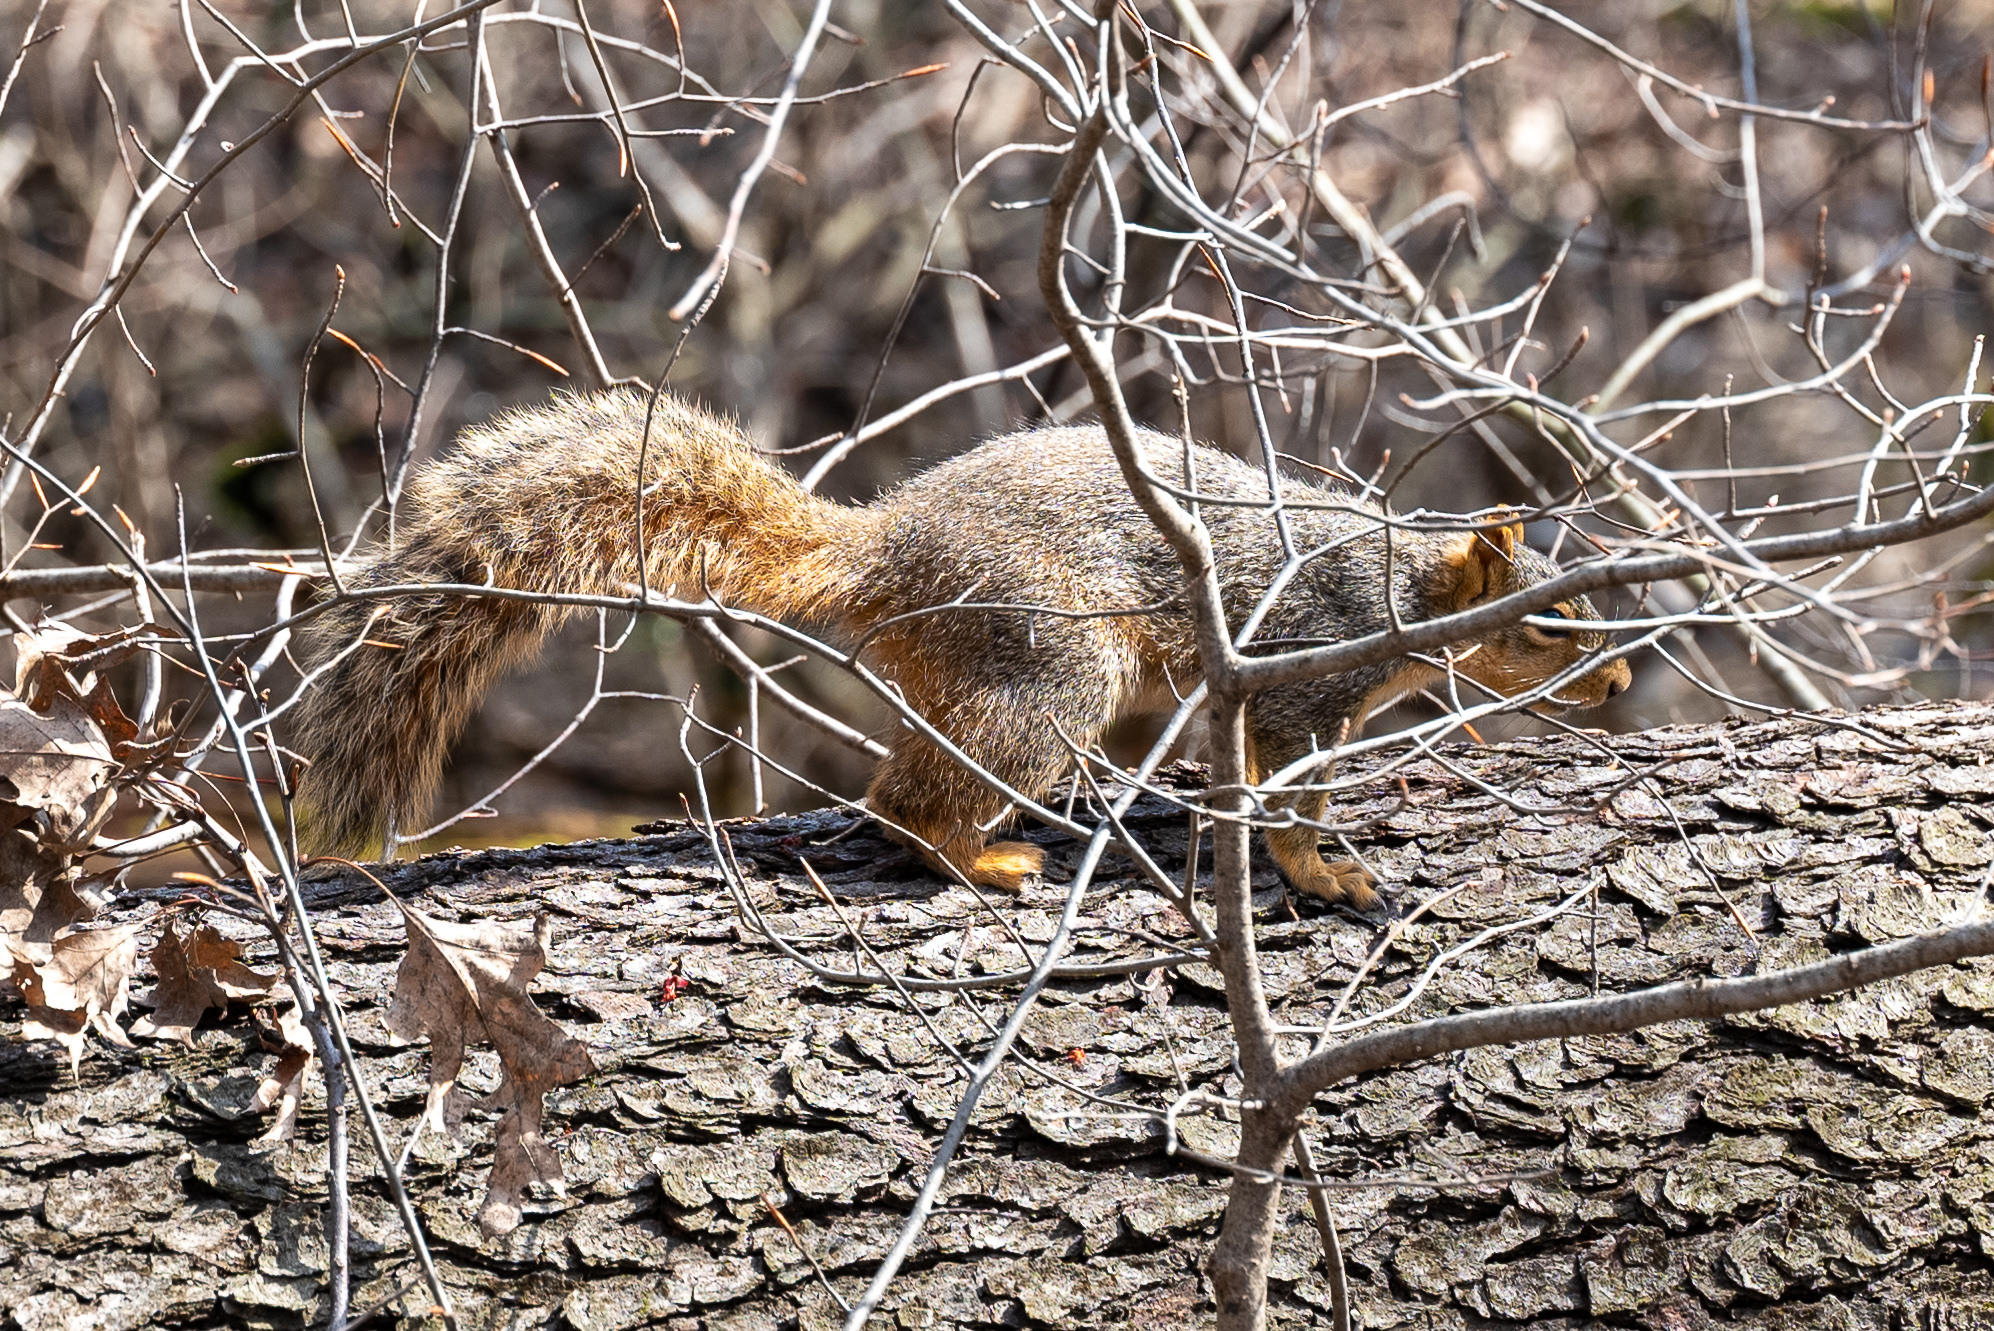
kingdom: Animalia
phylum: Chordata
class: Mammalia
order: Rodentia
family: Sciuridae
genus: Sciurus
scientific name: Sciurus niger
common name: Fox squirrel
